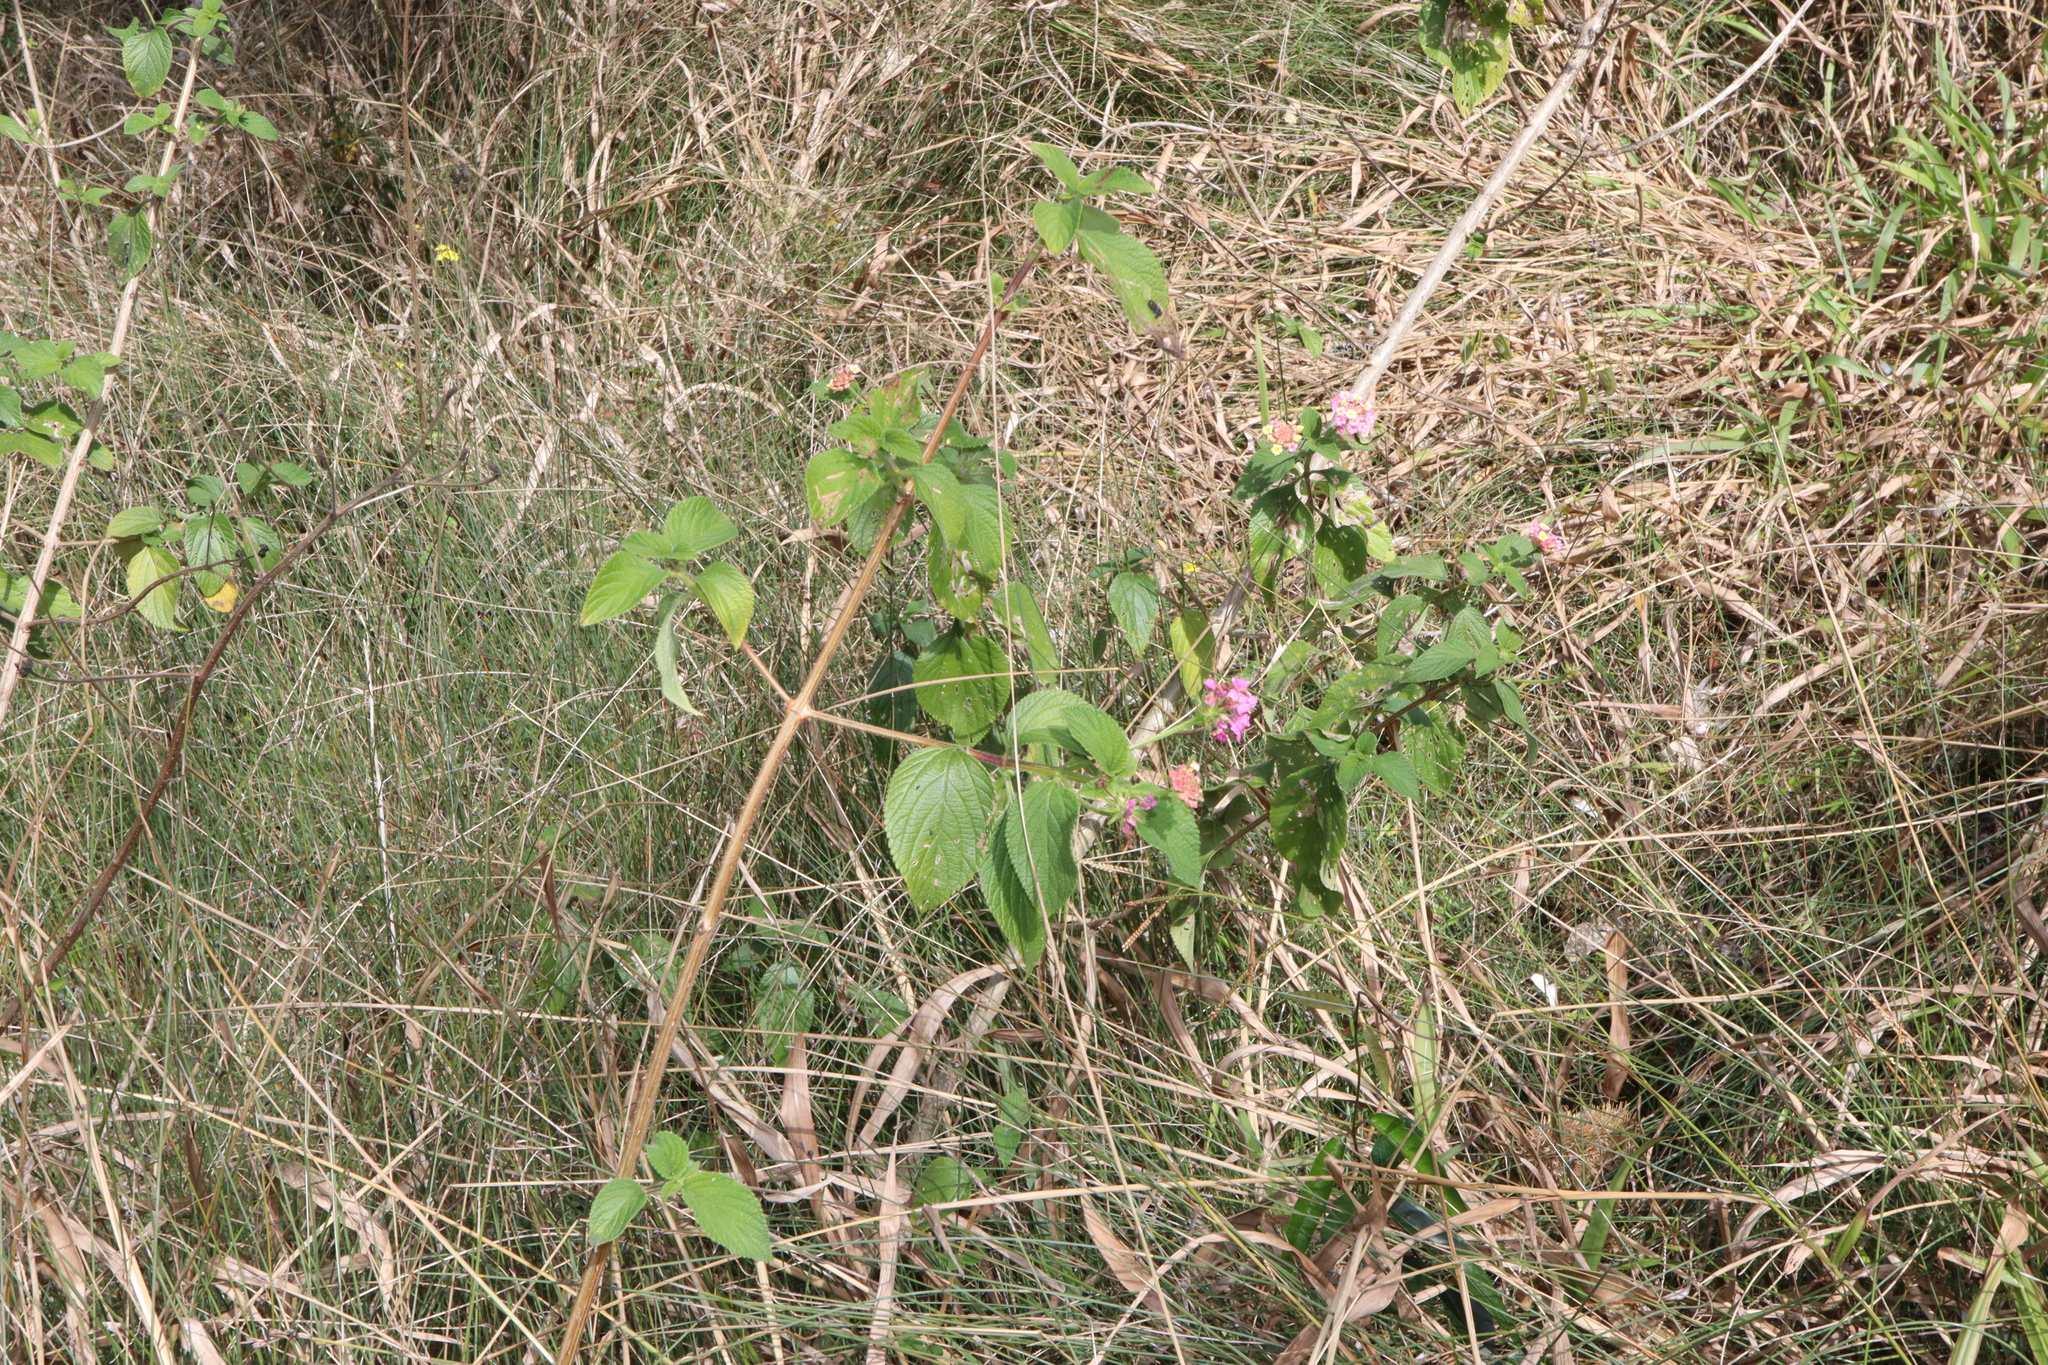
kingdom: Plantae
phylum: Tracheophyta
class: Magnoliopsida
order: Lamiales
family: Verbenaceae
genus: Lantana
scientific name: Lantana camara
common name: Lantana
